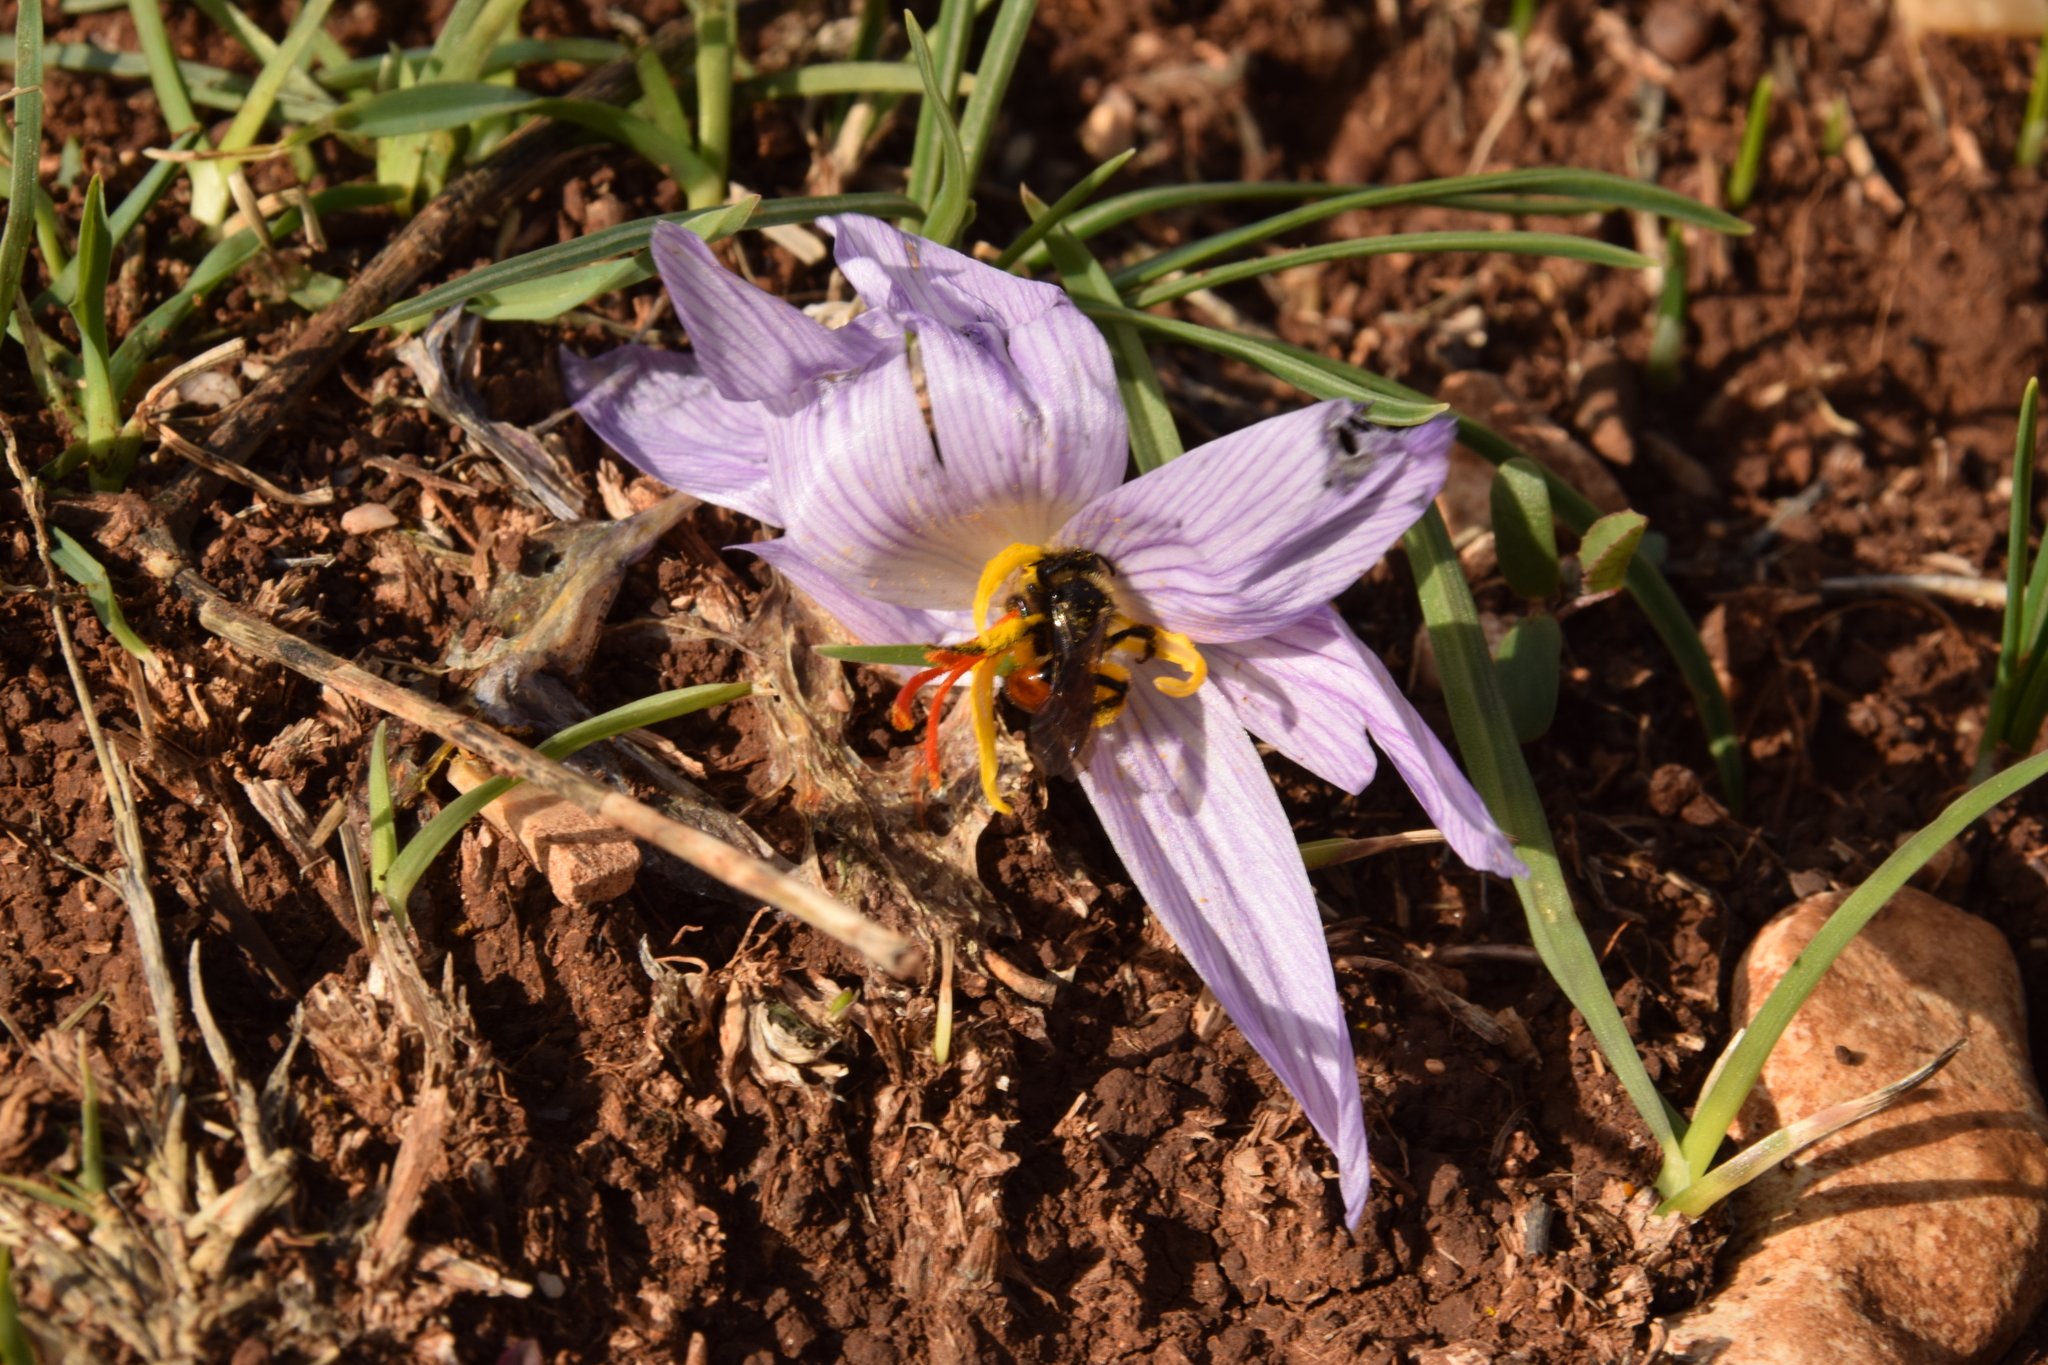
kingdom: Animalia
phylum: Arthropoda
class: Insecta
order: Hymenoptera
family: Andrenidae
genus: Andrena
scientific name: Andrena karia
